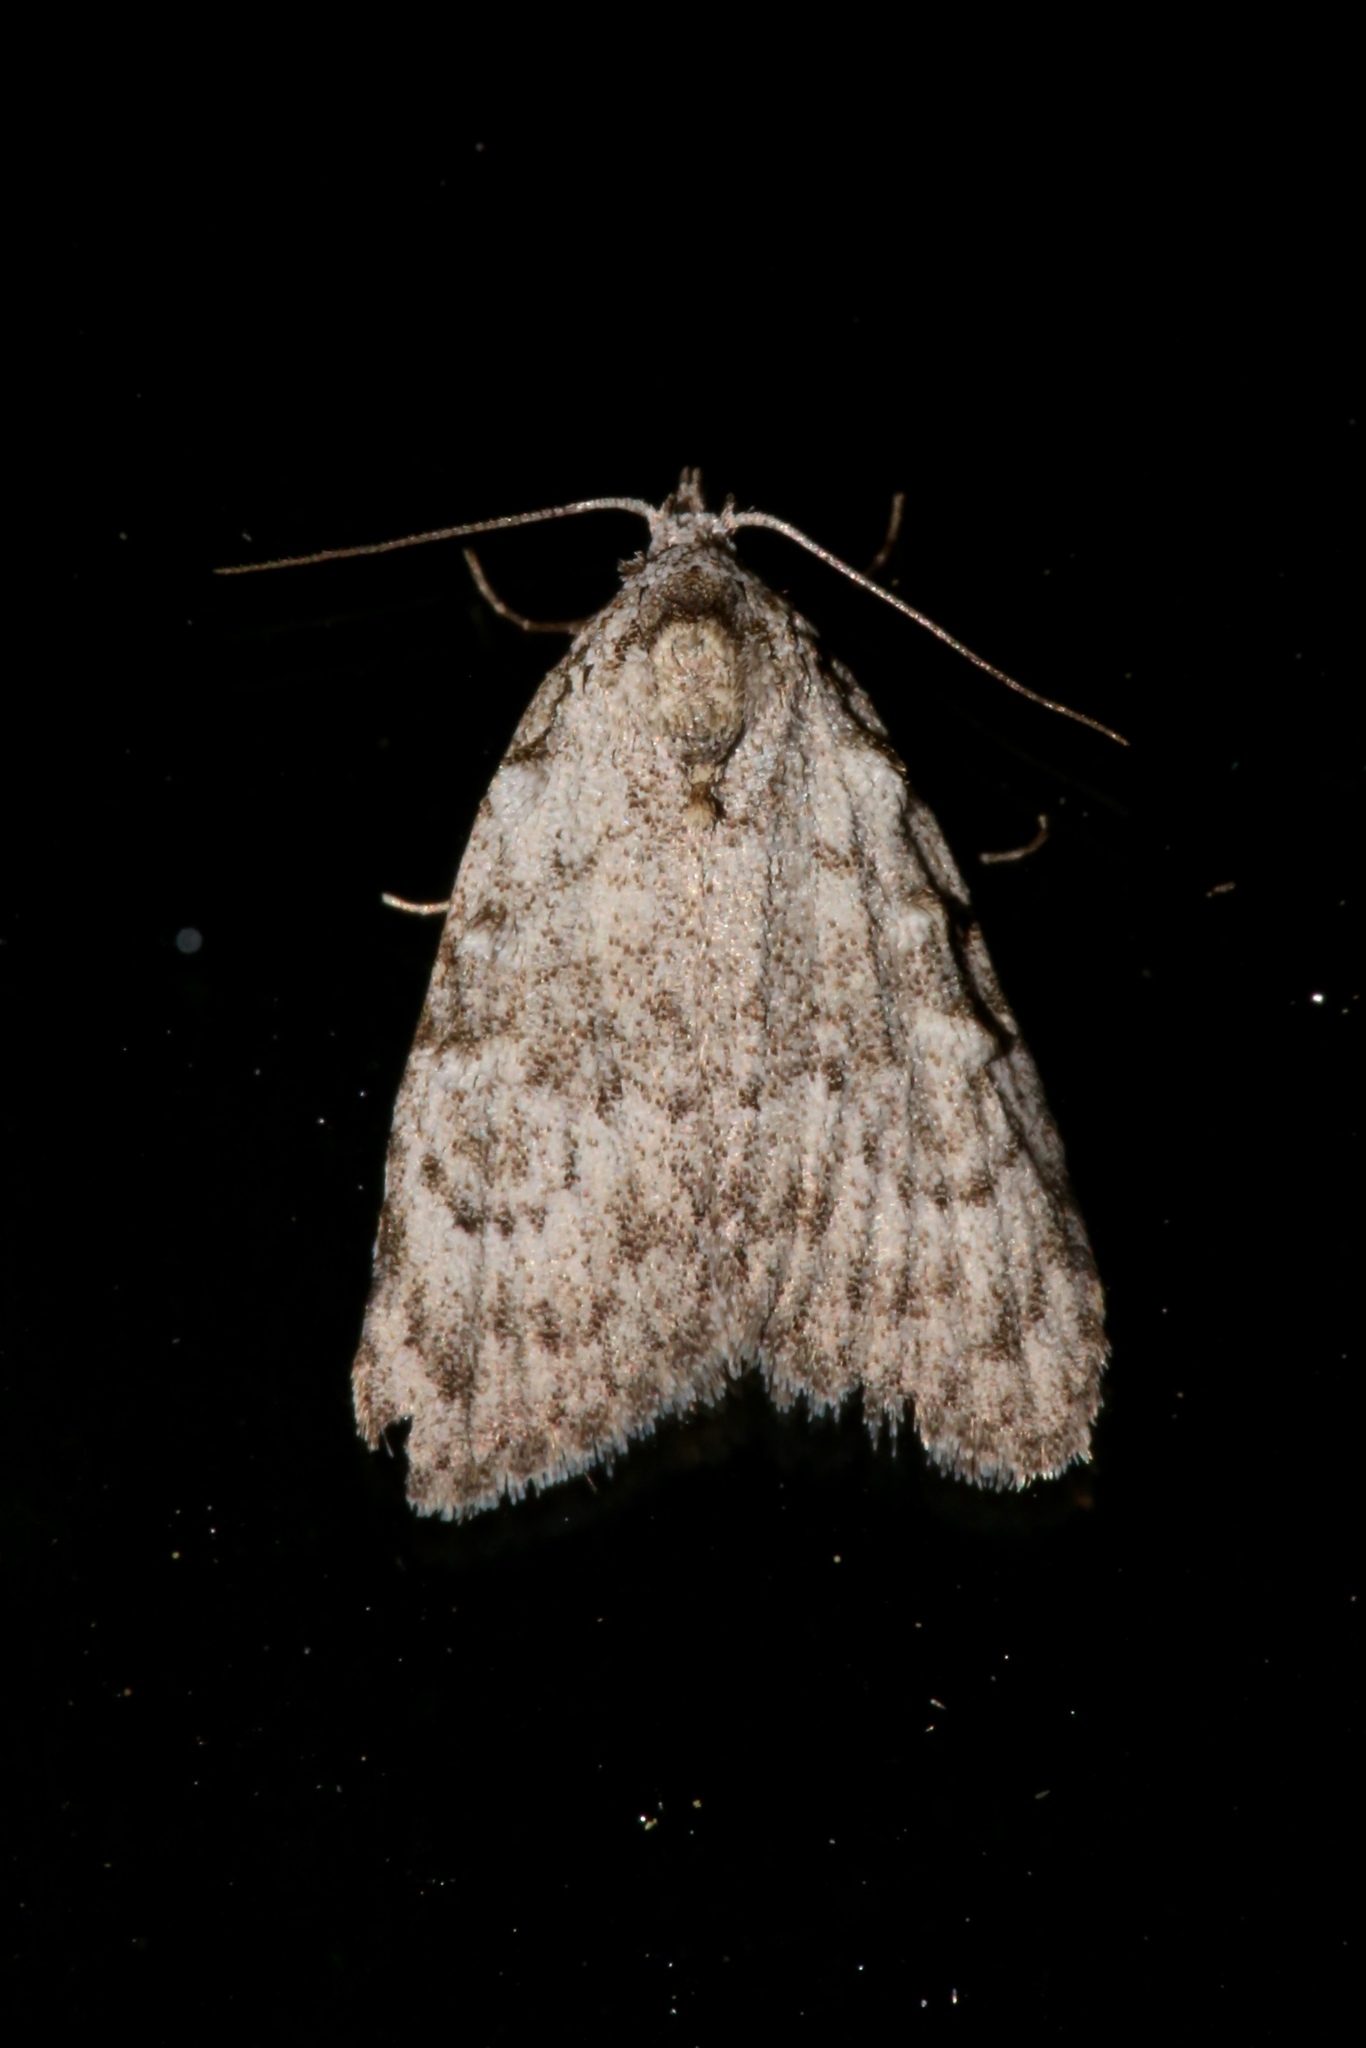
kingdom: Animalia
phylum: Arthropoda
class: Insecta
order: Lepidoptera
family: Nolidae
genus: Meganola
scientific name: Meganola minuscula
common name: Confused meganola moth
